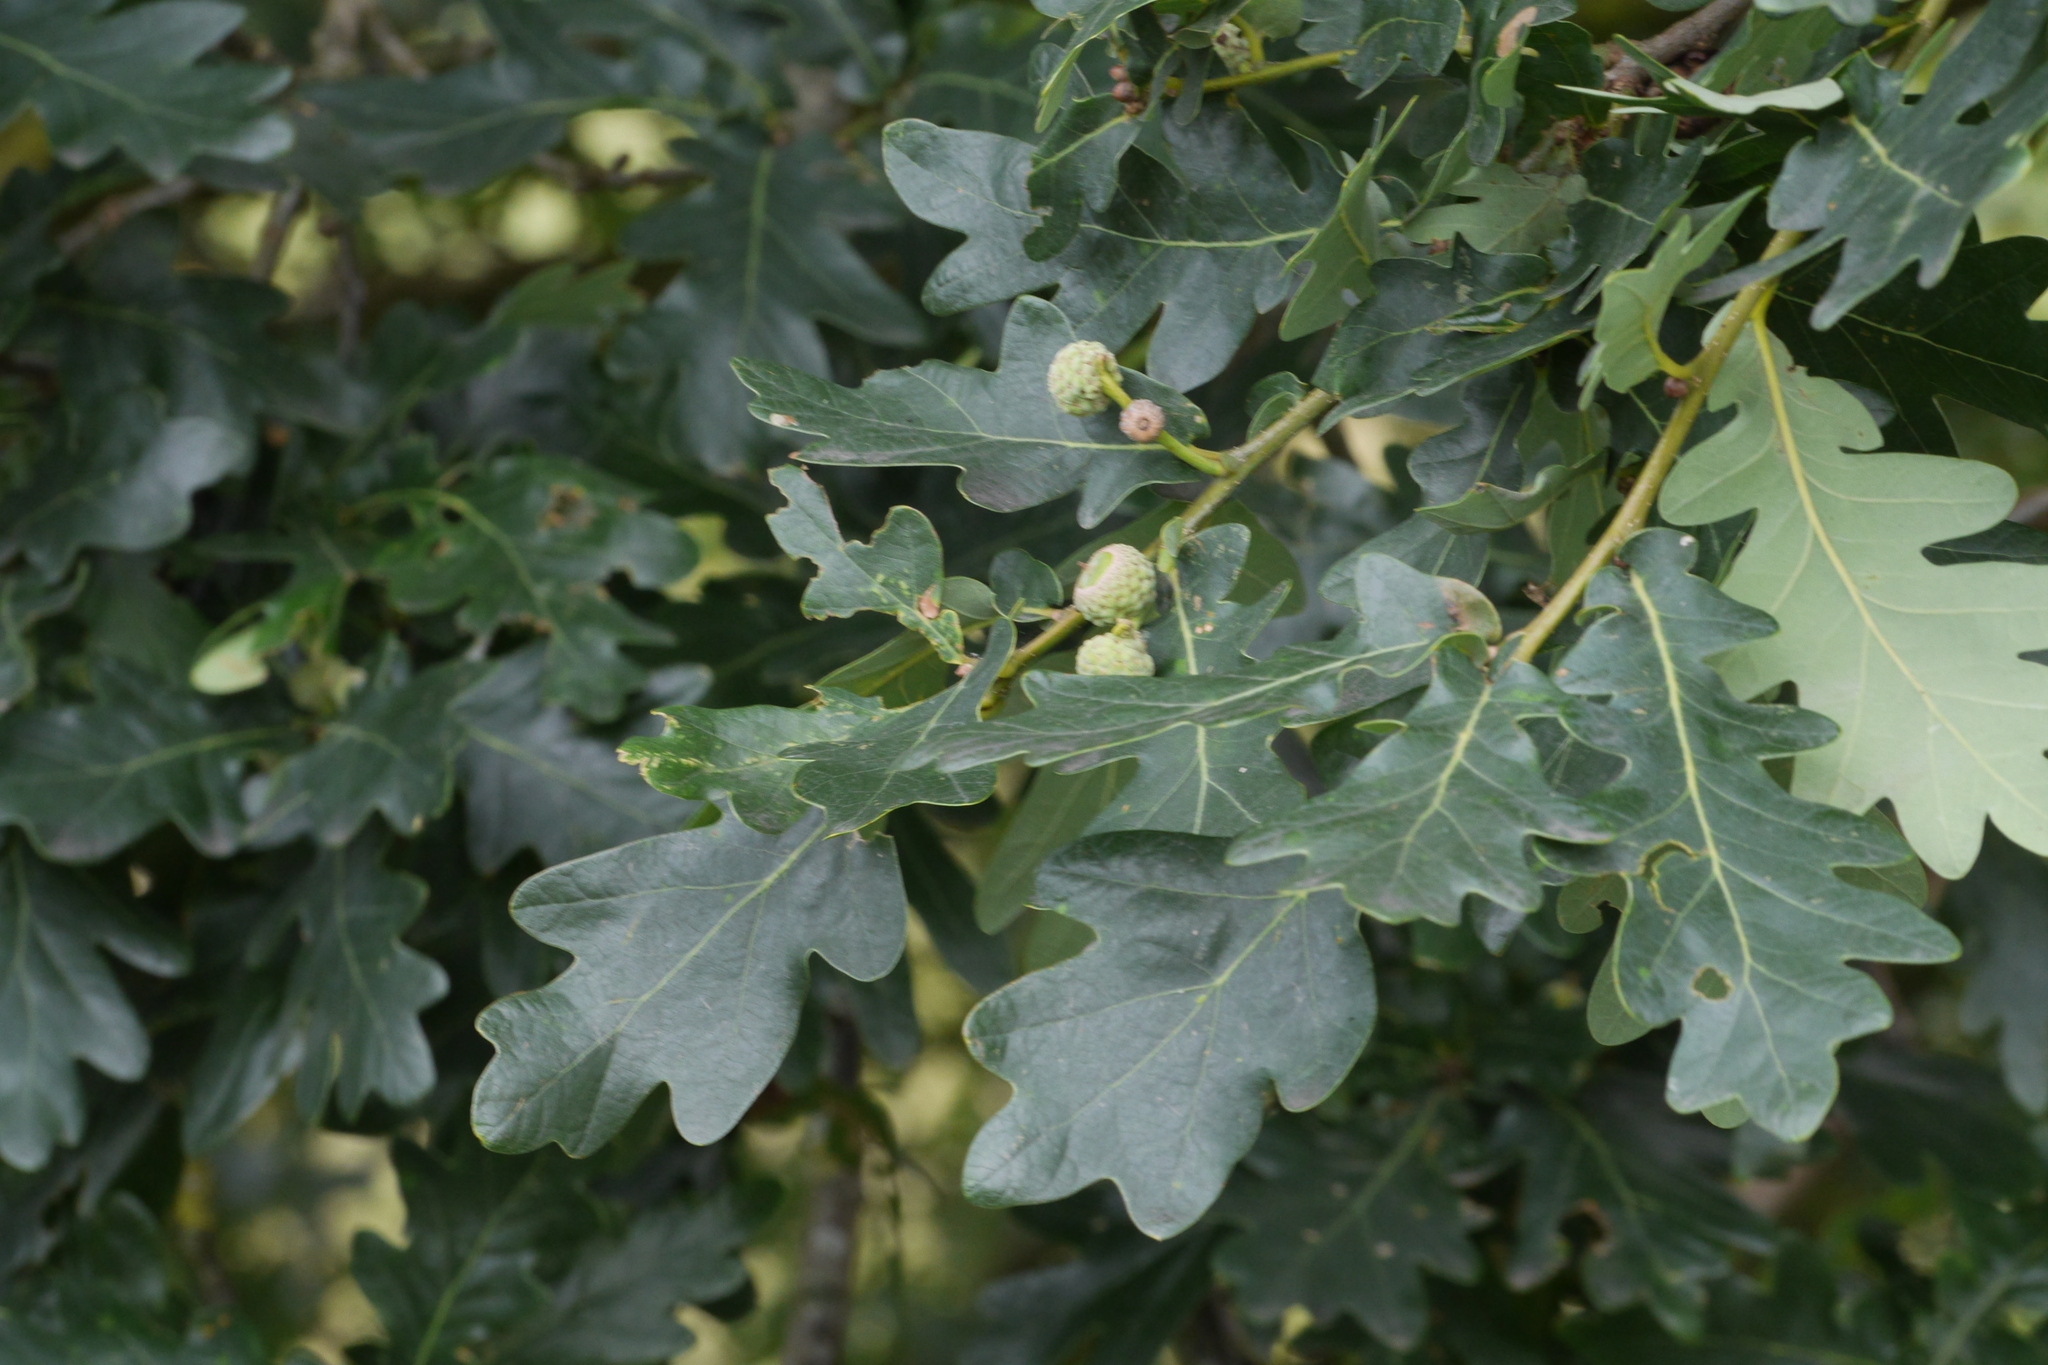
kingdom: Plantae
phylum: Tracheophyta
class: Magnoliopsida
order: Fagales
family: Fagaceae
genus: Quercus
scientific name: Quercus robur
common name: Pedunculate oak
